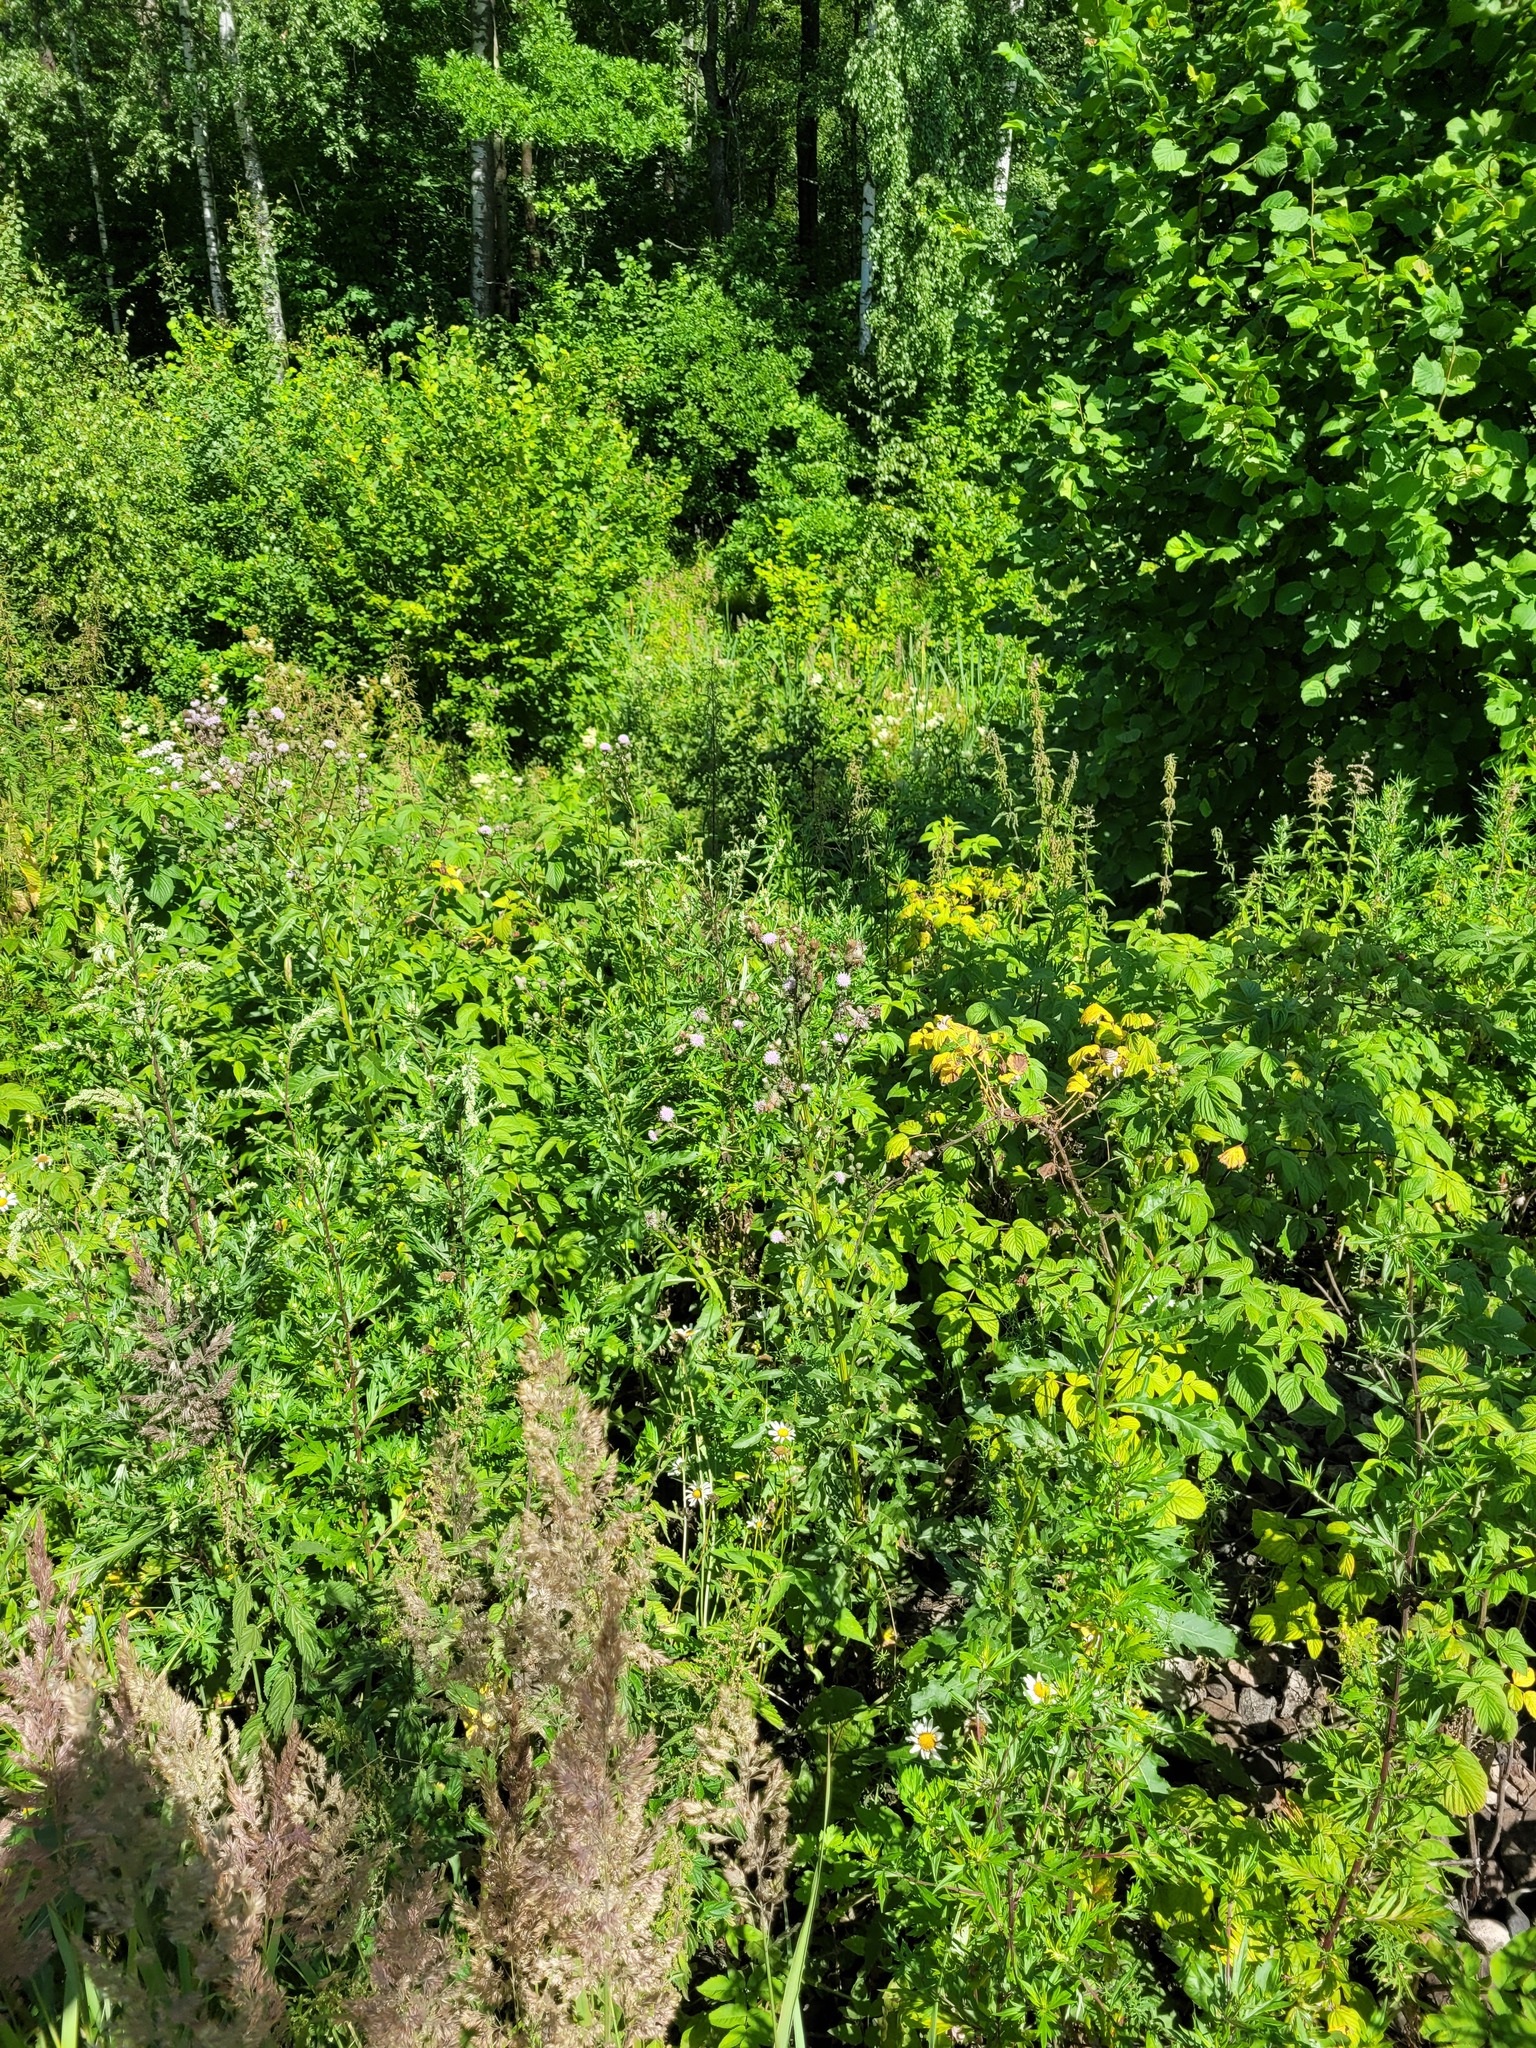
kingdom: Plantae
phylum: Tracheophyta
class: Magnoliopsida
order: Asterales
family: Asteraceae
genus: Cirsium
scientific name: Cirsium arvense
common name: Creeping thistle
